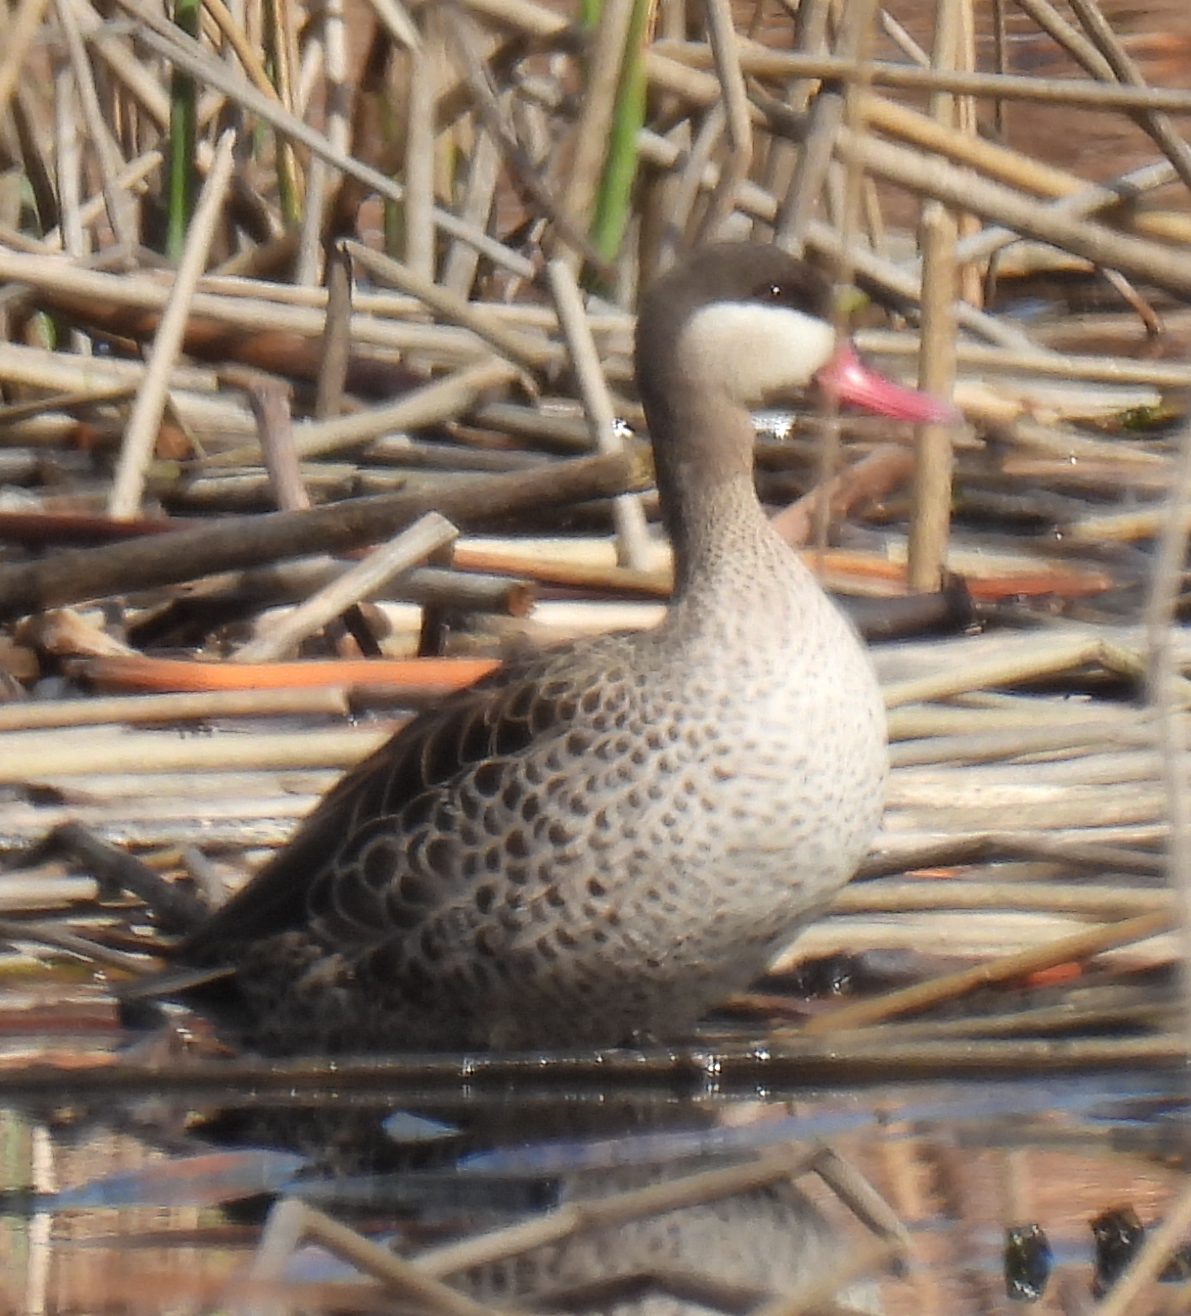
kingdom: Animalia
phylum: Chordata
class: Aves
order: Anseriformes
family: Anatidae
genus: Anas
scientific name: Anas erythrorhyncha
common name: Red-billed teal
